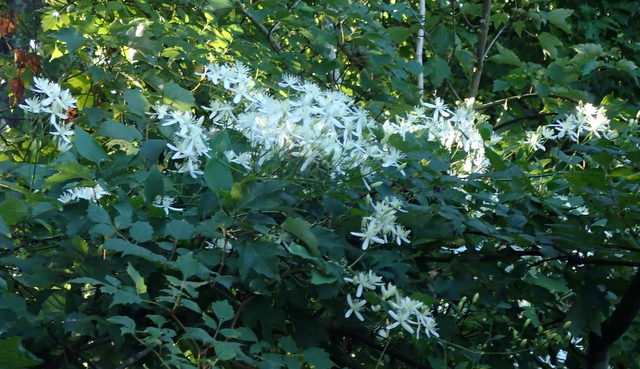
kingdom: Plantae
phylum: Tracheophyta
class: Magnoliopsida
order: Ranunculales
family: Ranunculaceae
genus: Clematis
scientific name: Clematis terniflora
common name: Sweet autumn clematis
